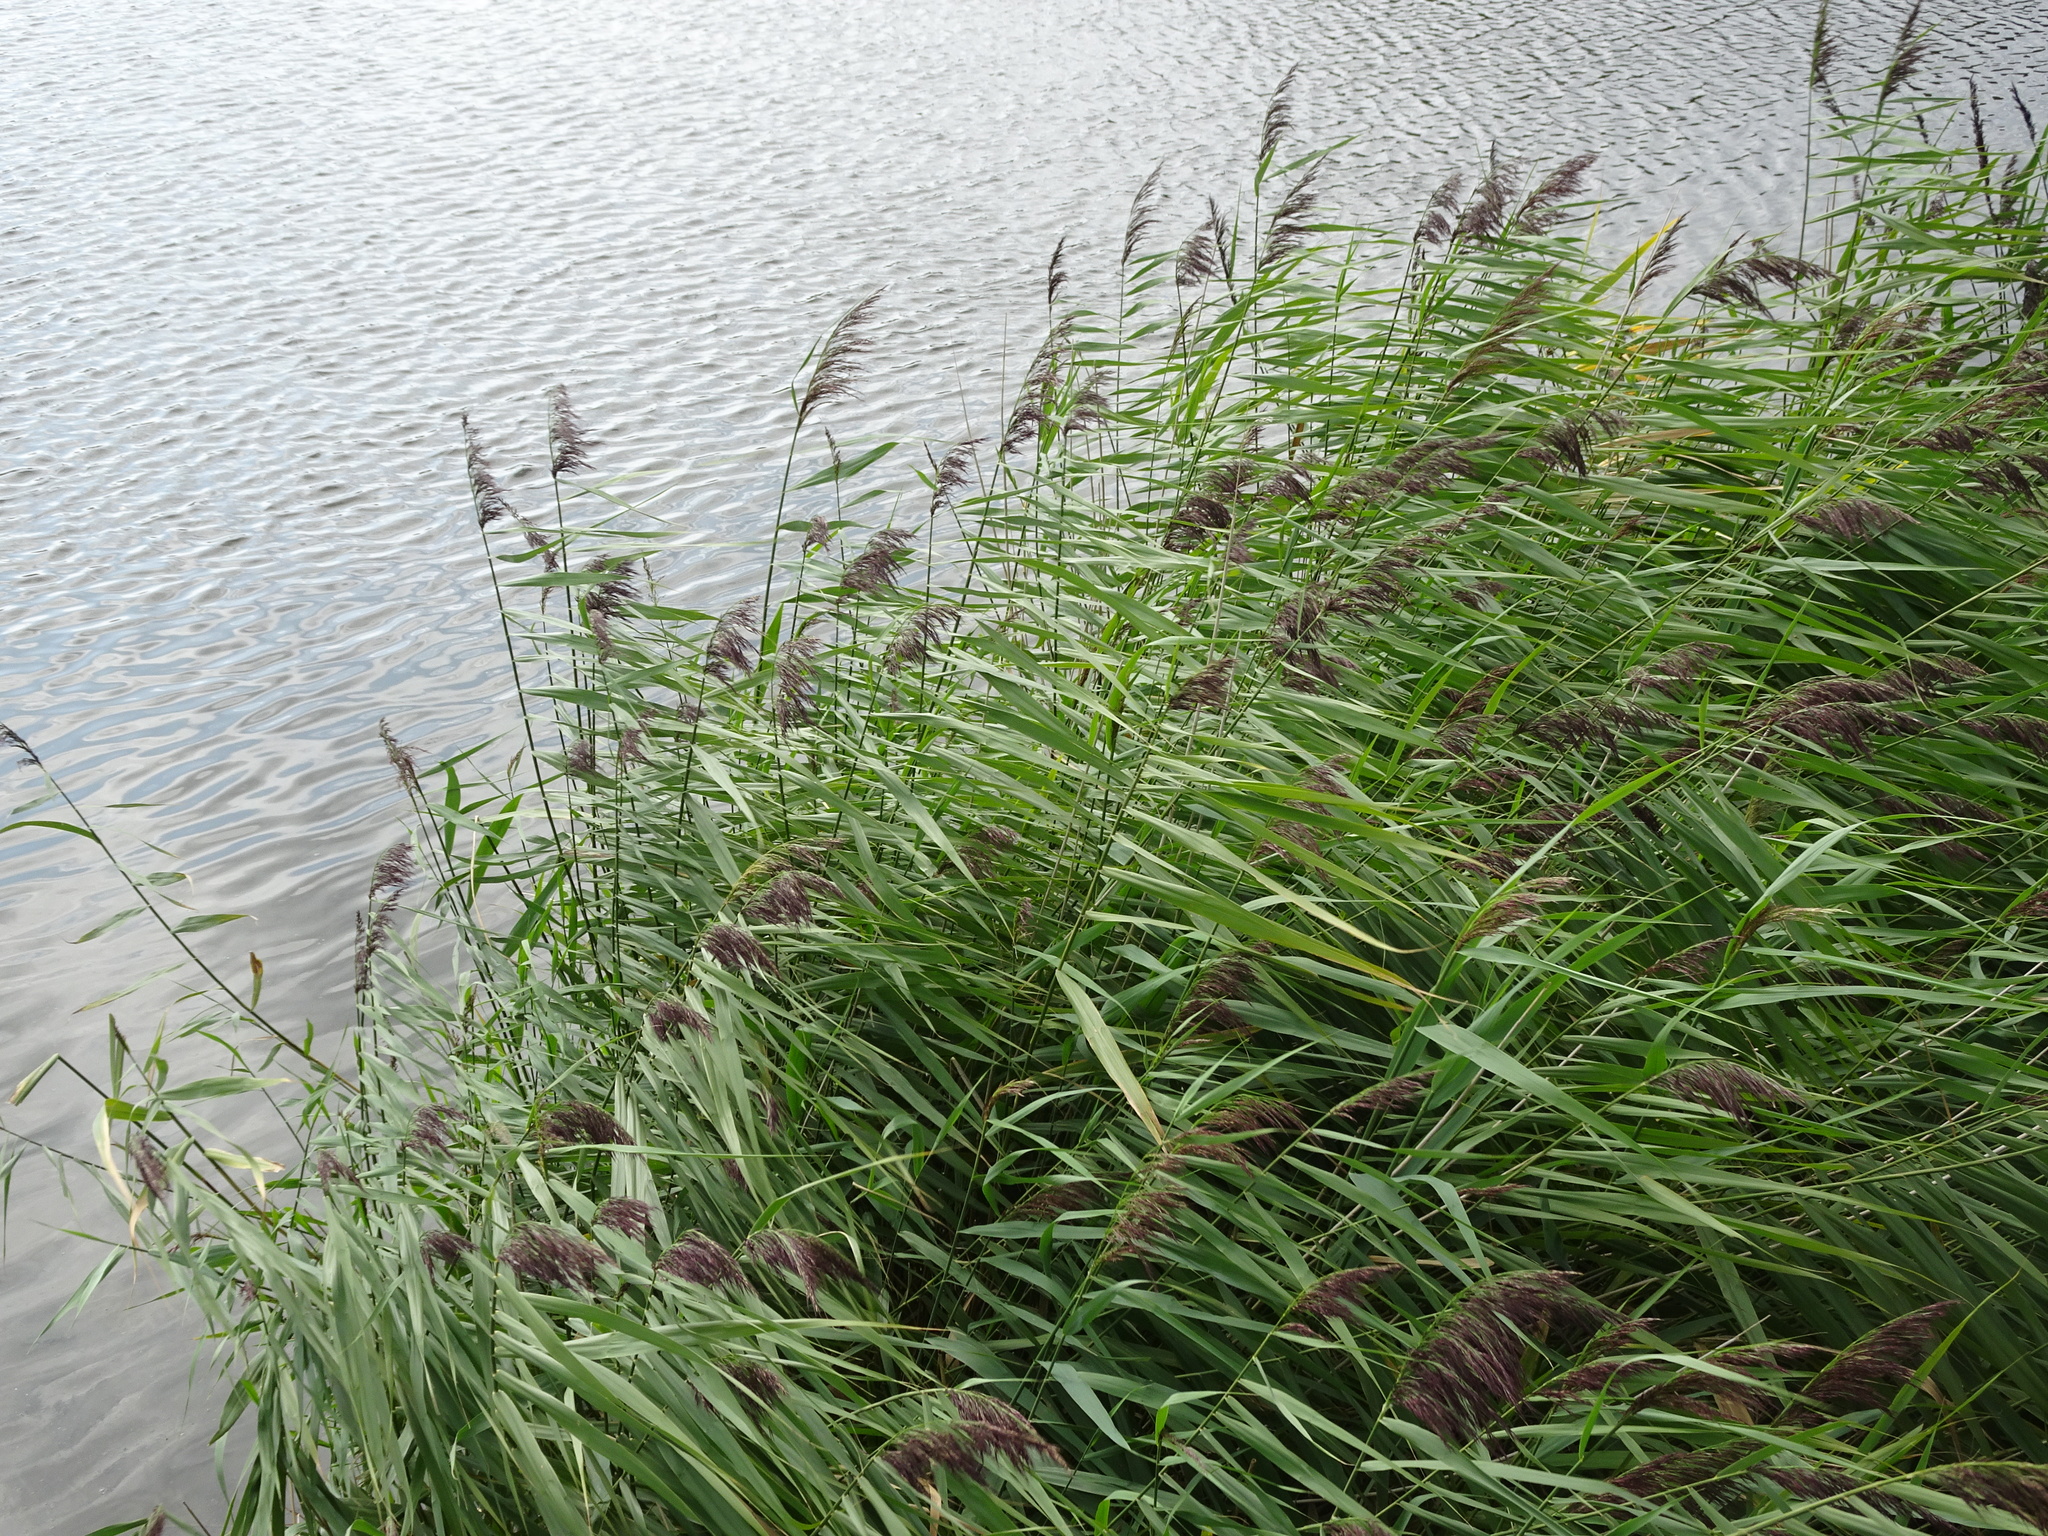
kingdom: Plantae
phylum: Tracheophyta
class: Liliopsida
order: Poales
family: Poaceae
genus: Phragmites
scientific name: Phragmites australis
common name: Common reed
